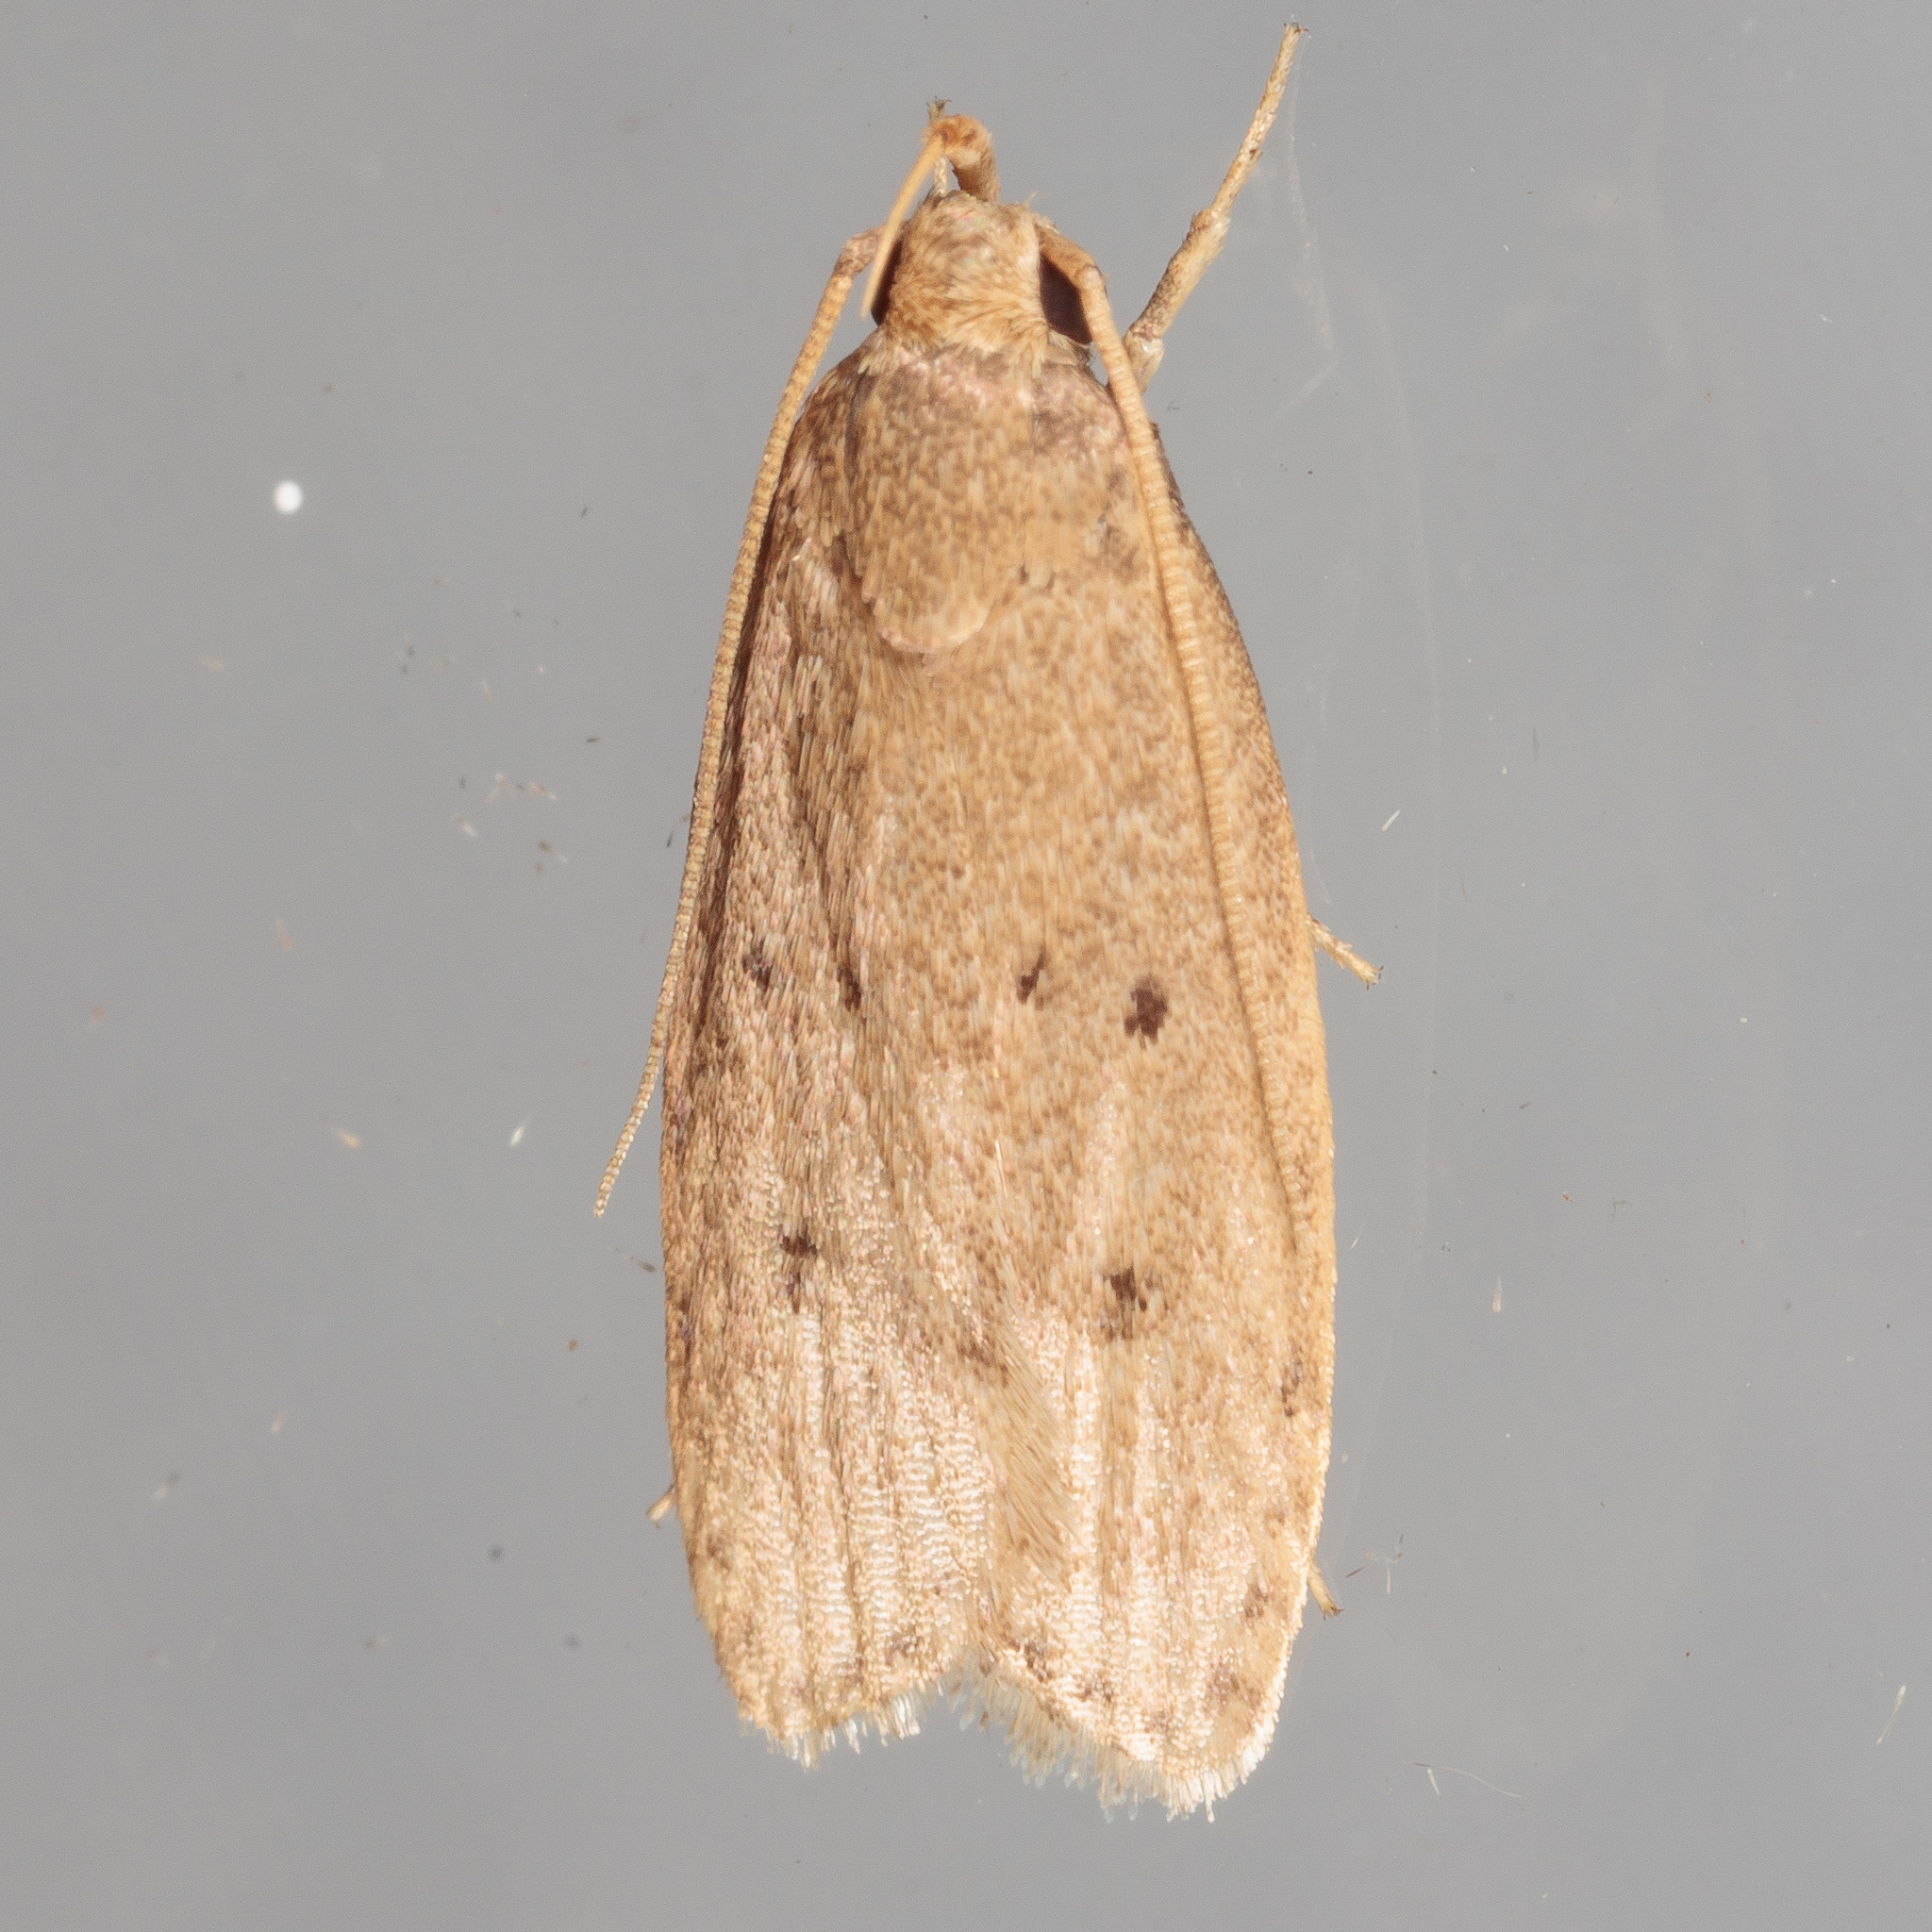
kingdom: Animalia
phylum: Arthropoda
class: Insecta
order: Lepidoptera
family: Autostichidae
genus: Autosticha
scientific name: Autosticha kyotensis
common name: Kyoto moth
